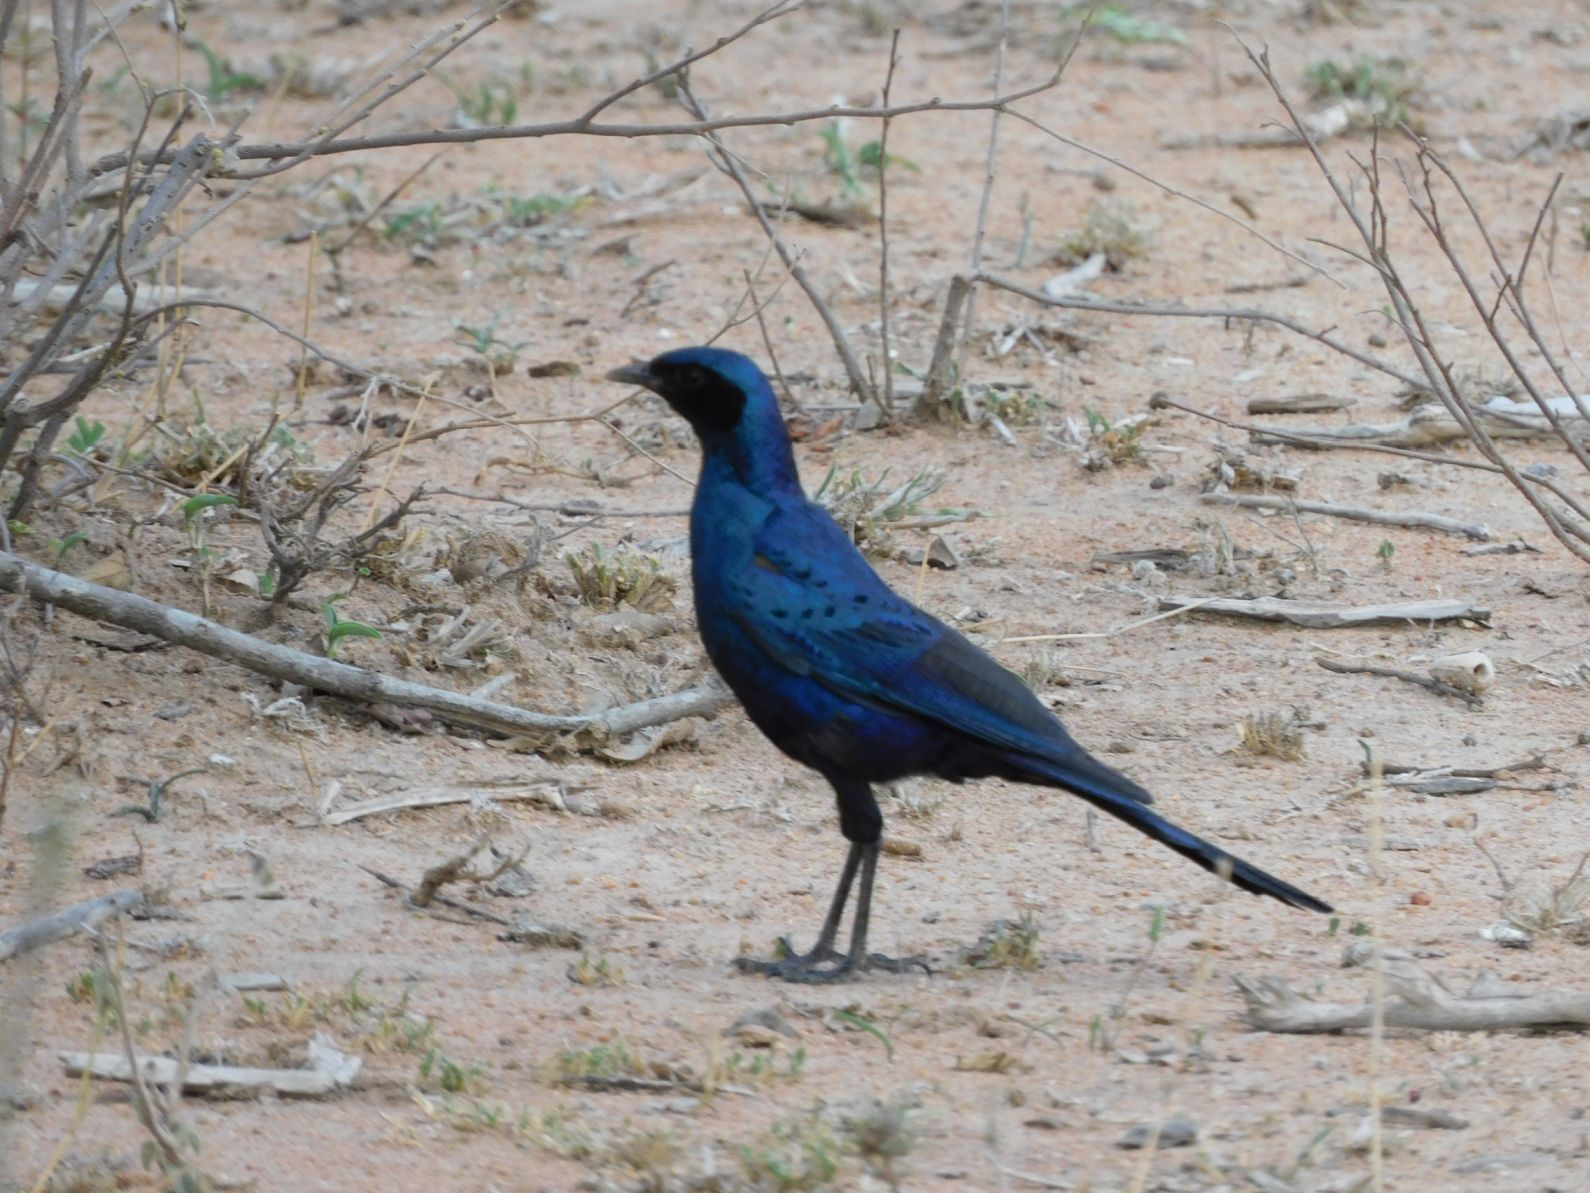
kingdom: Animalia
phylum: Chordata
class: Aves
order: Passeriformes
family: Sturnidae
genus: Lamprotornis
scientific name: Lamprotornis australis
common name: Burchell's starling
